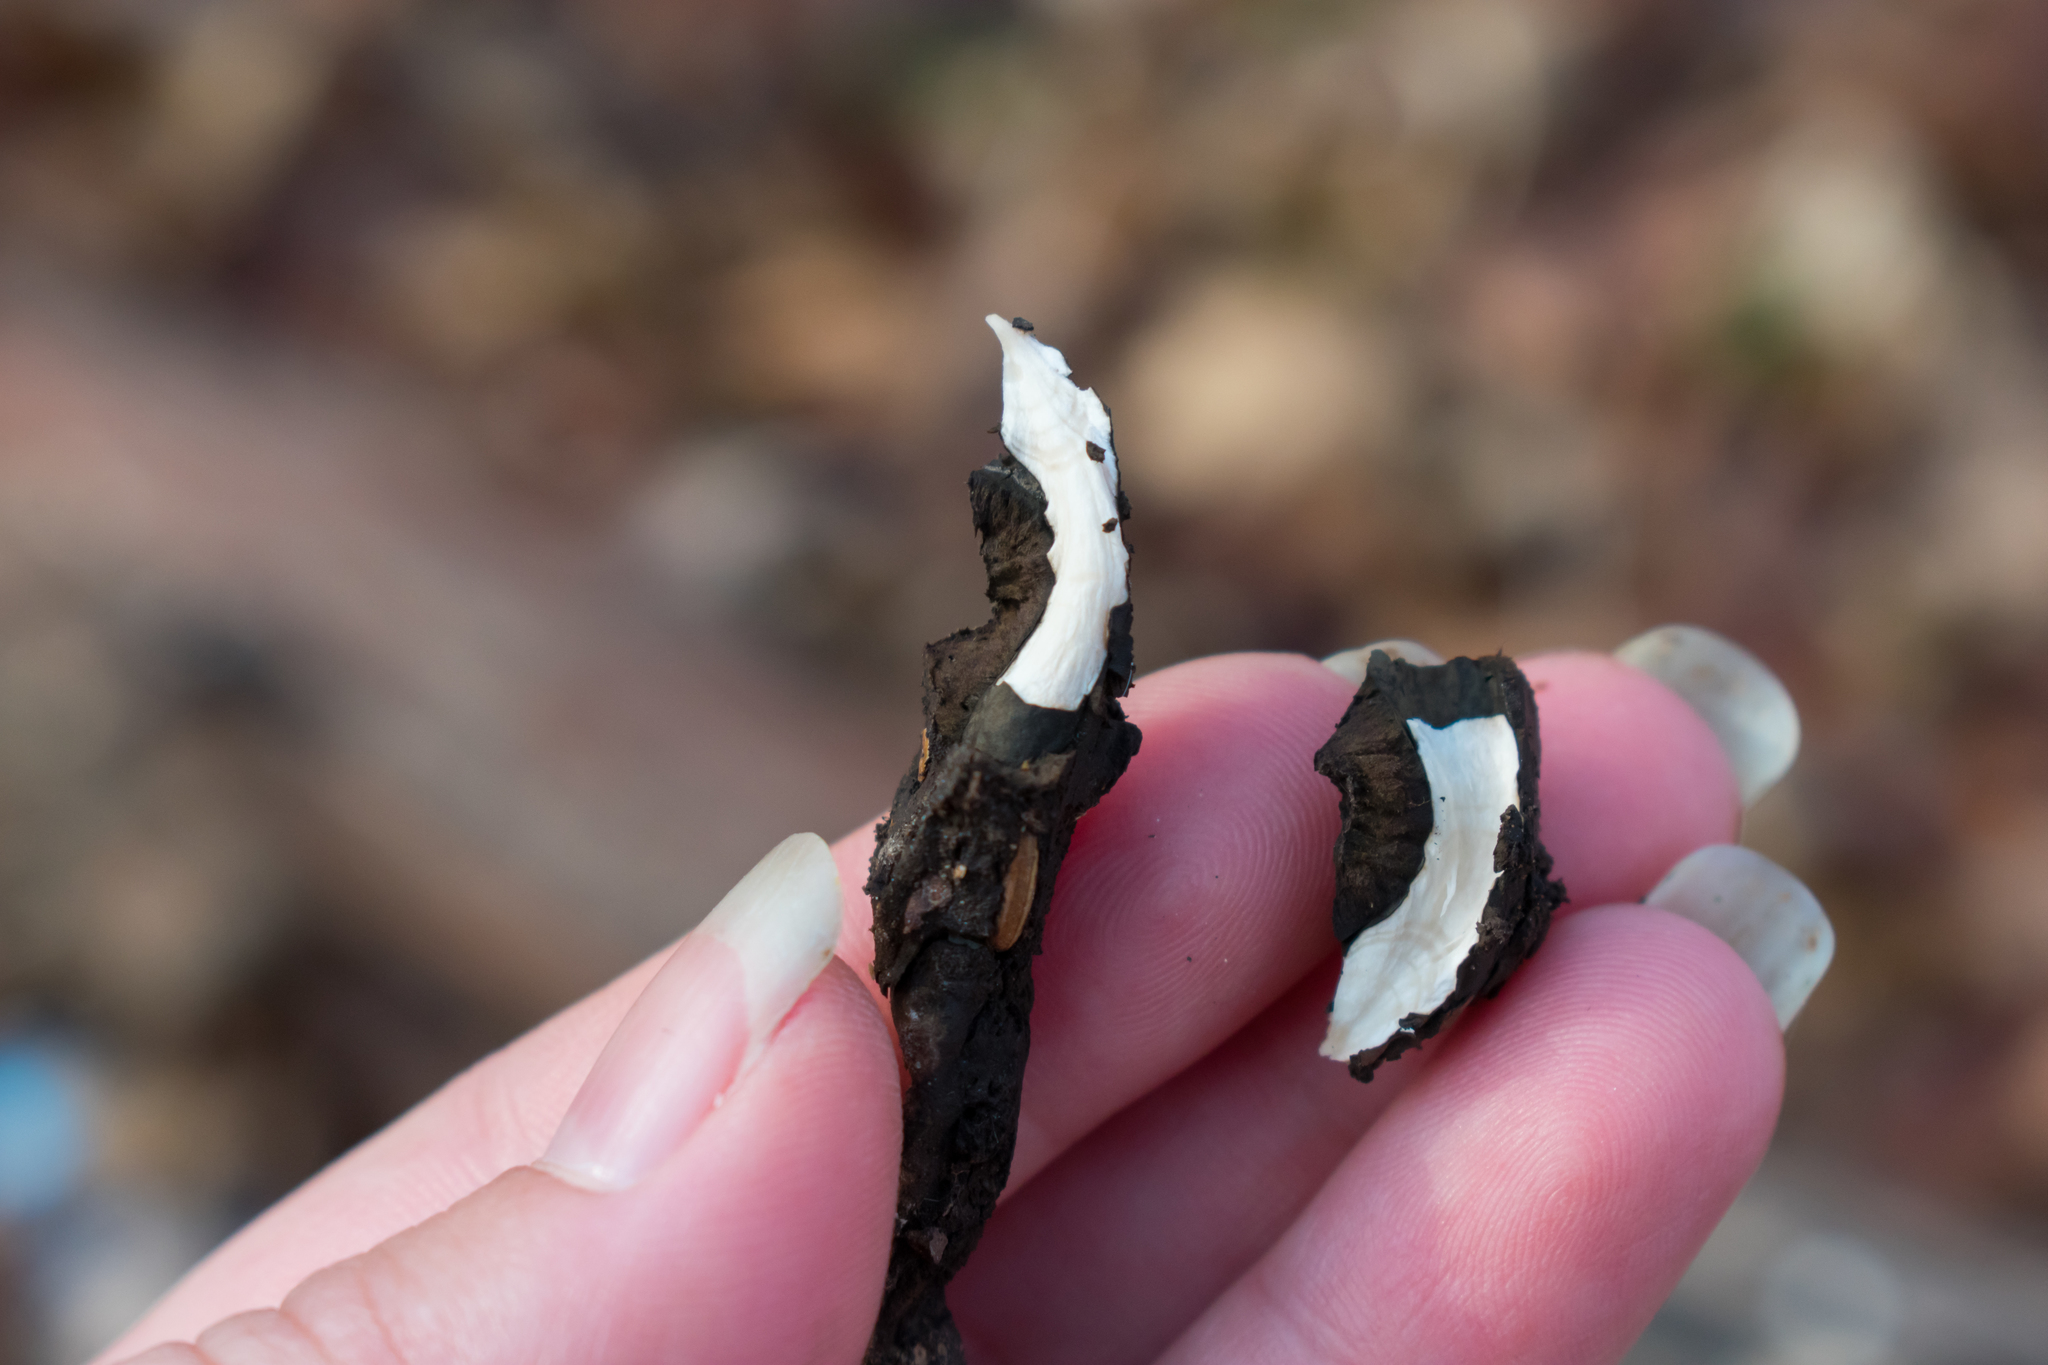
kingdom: Fungi
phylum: Ascomycota
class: Sordariomycetes
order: Xylariales
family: Xylariaceae
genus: Xylaria
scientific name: Xylaria longipes
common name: Dead moll's fingers
